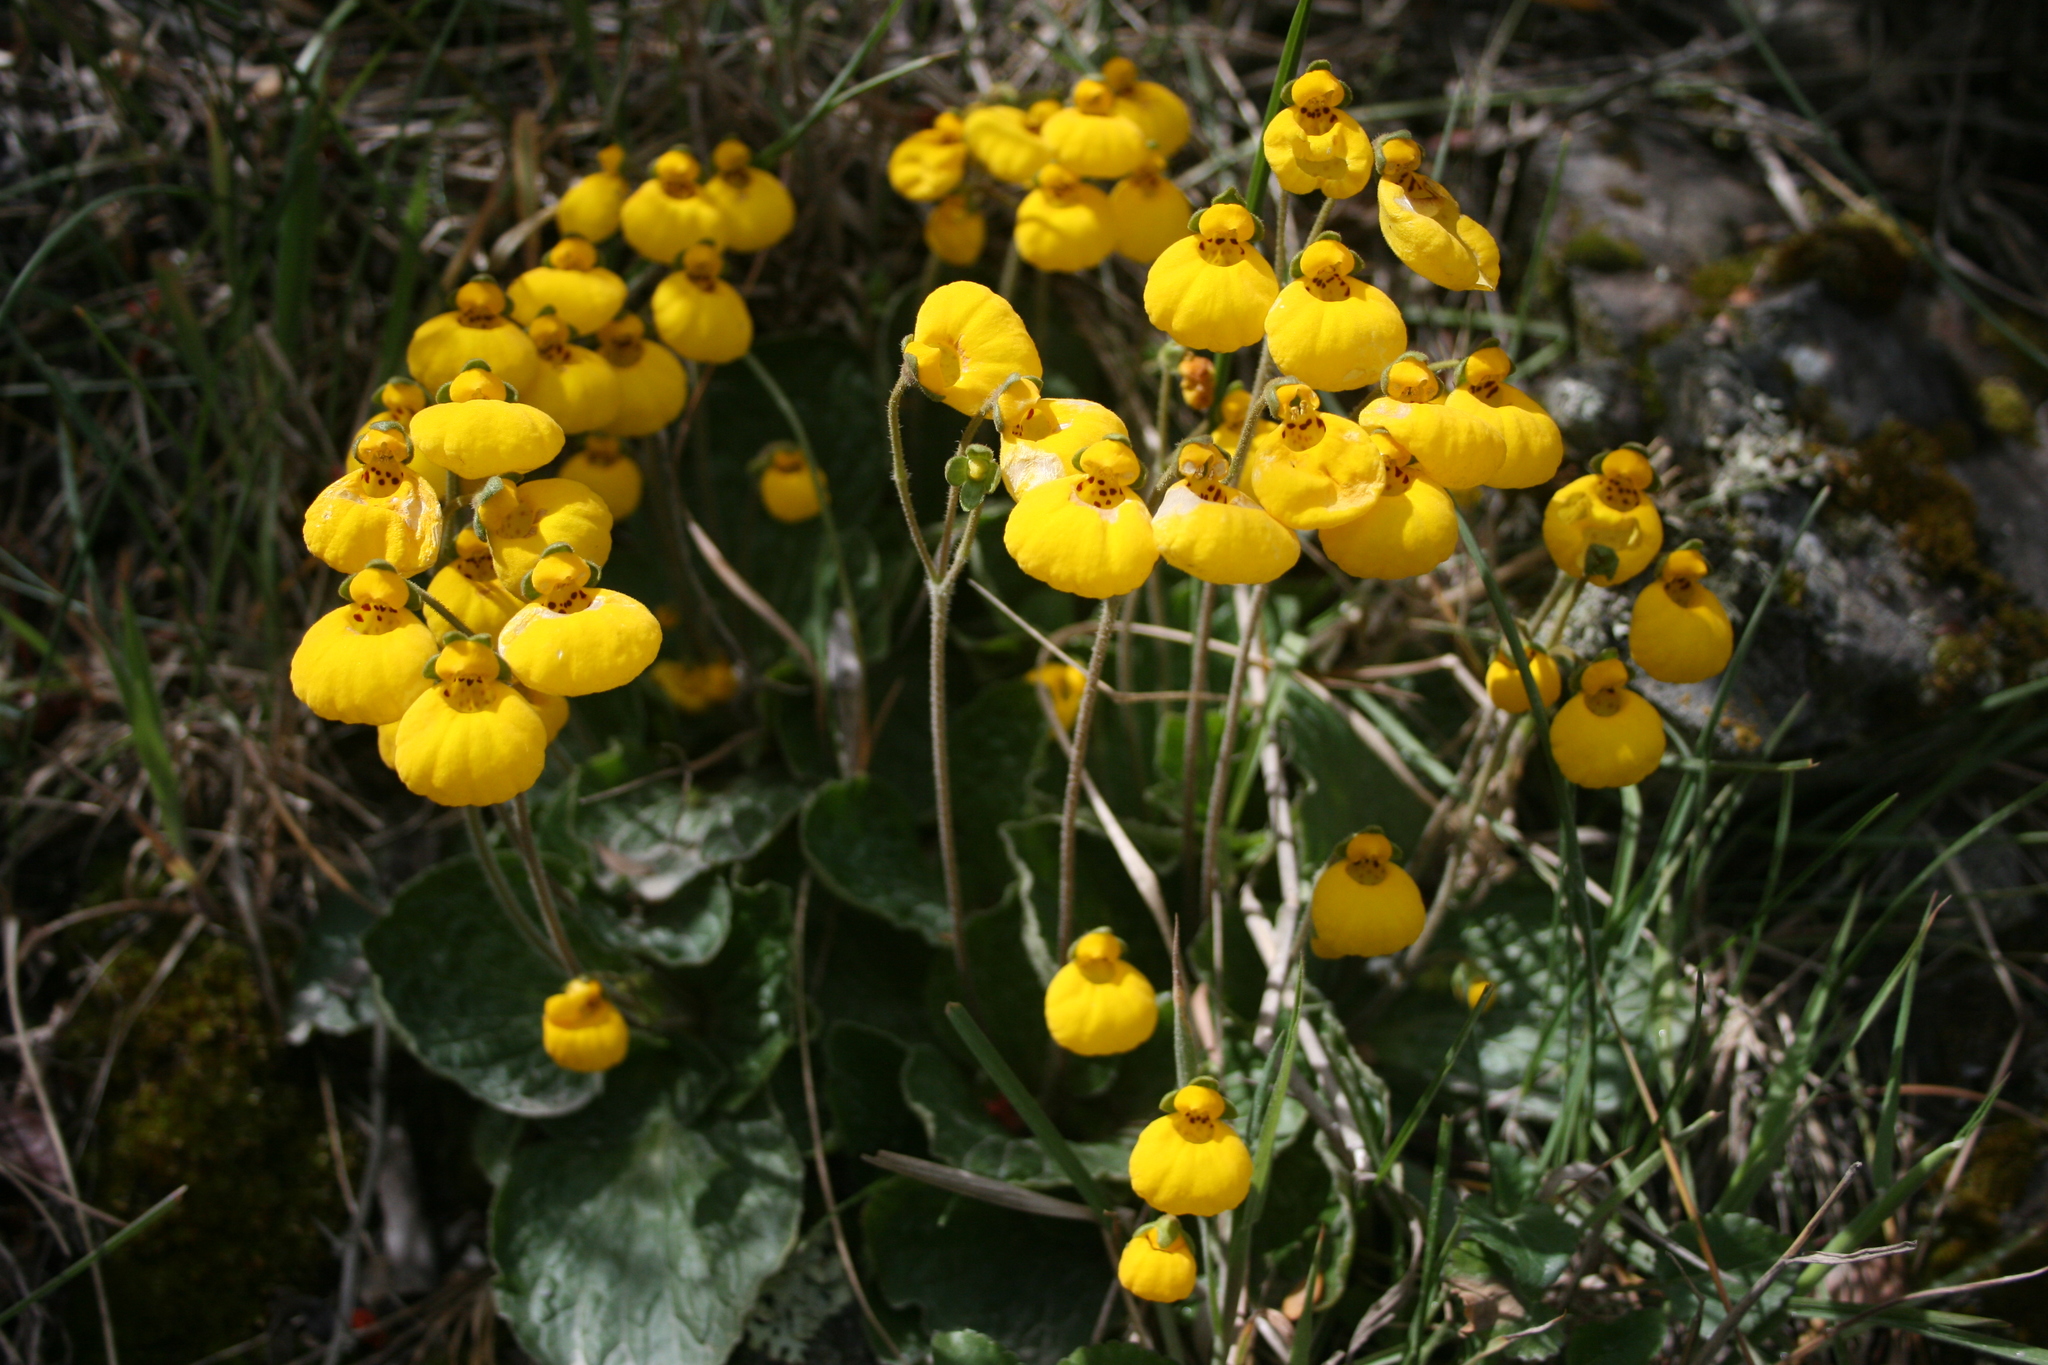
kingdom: Plantae
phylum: Tracheophyta
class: Magnoliopsida
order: Lamiales
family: Calceolariaceae
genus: Calceolaria
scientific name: Calceolaria biflora
